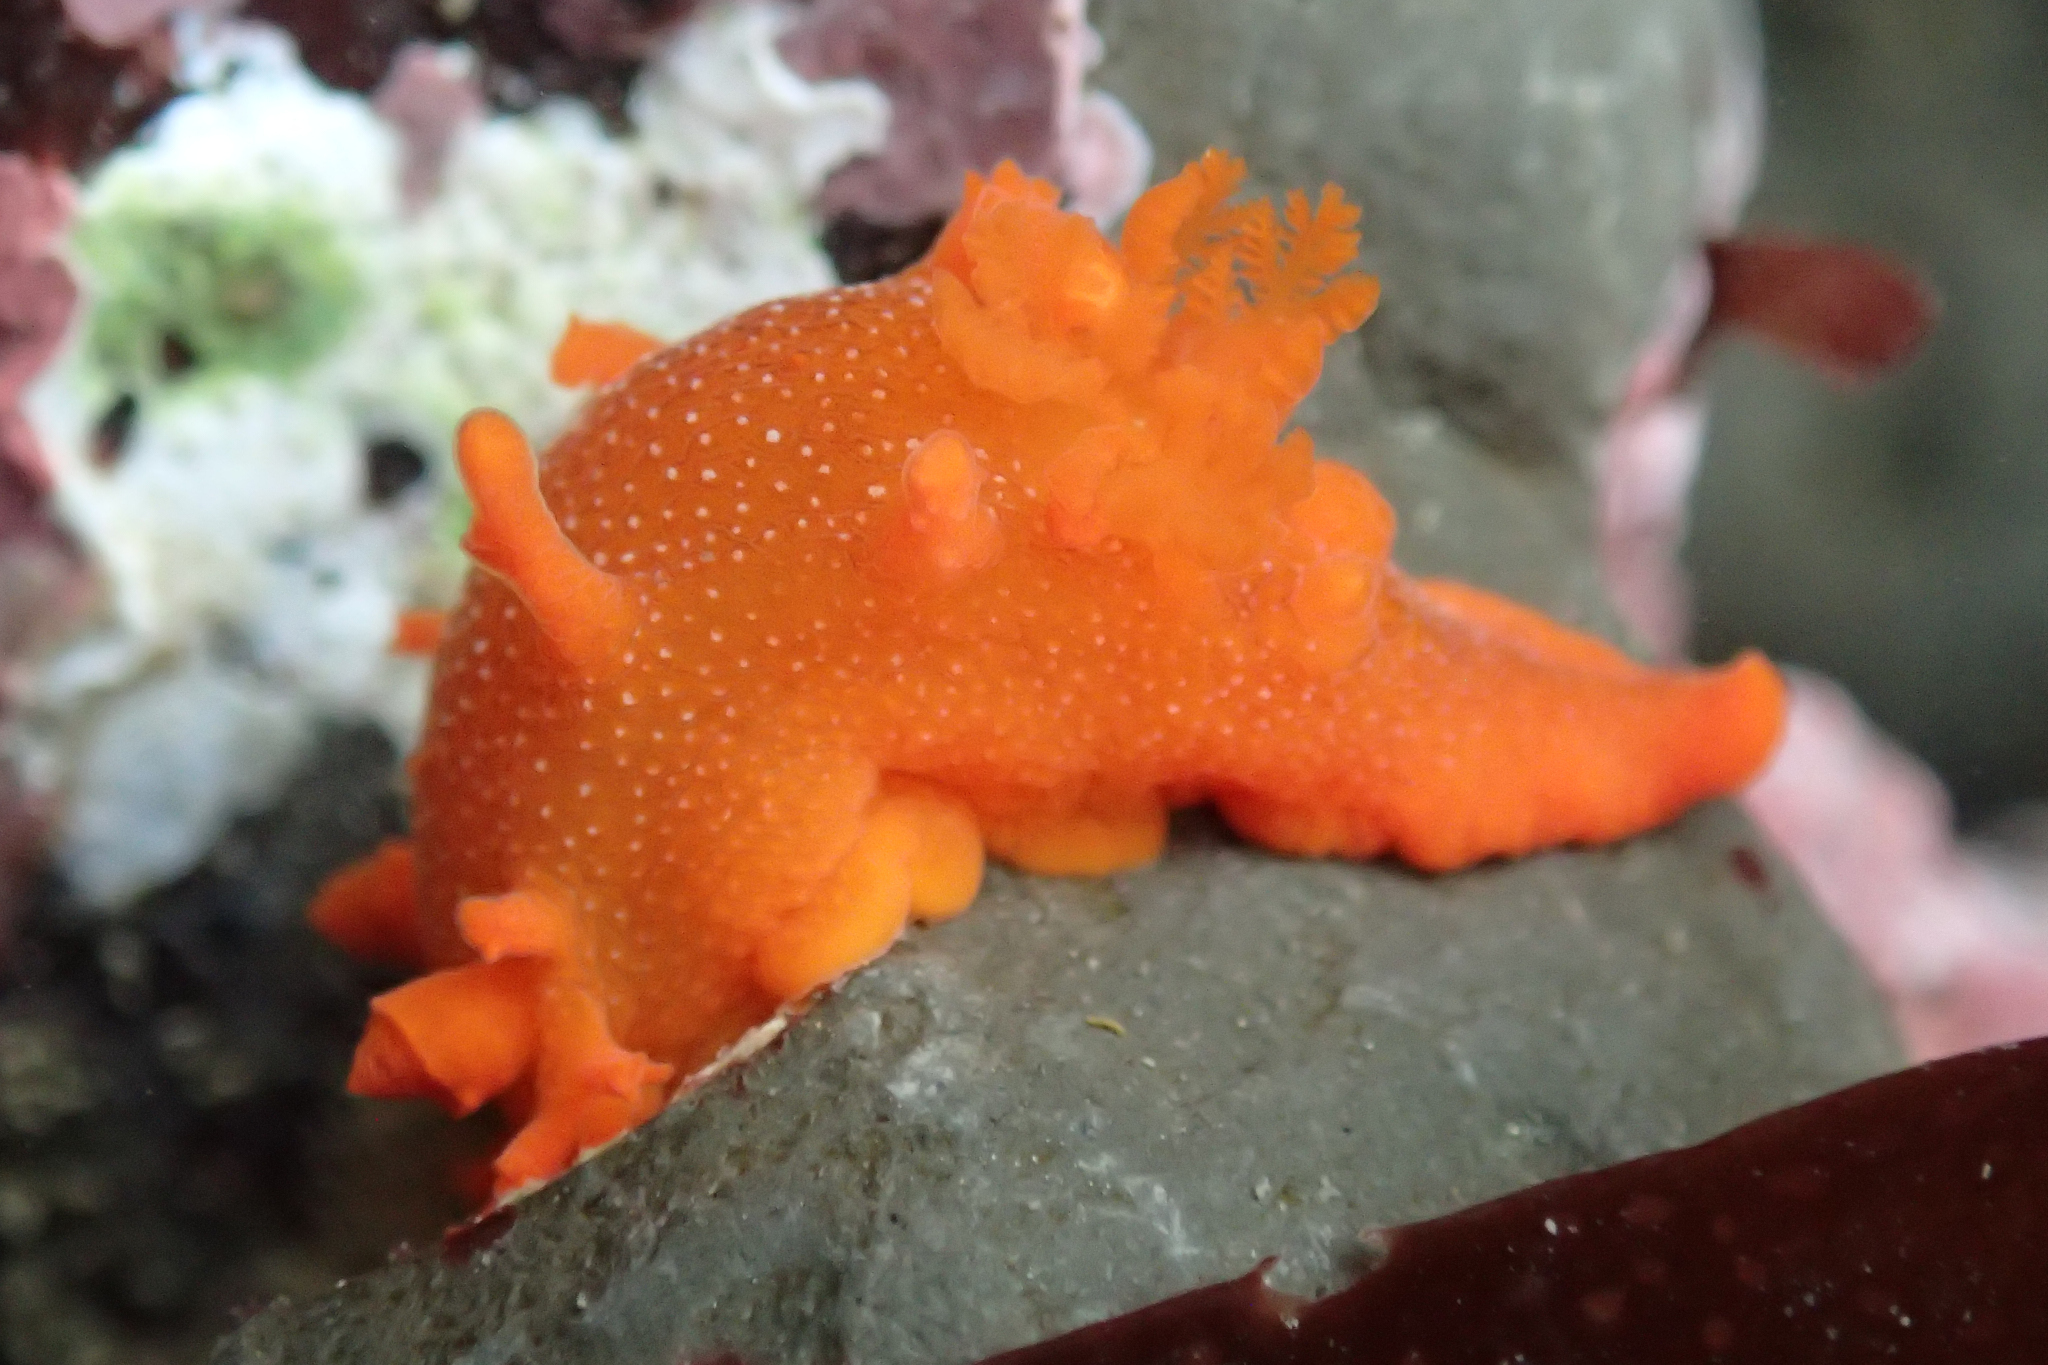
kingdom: Animalia
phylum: Mollusca
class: Gastropoda
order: Nudibranchia
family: Polyceridae
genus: Triopha
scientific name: Triopha maculata
